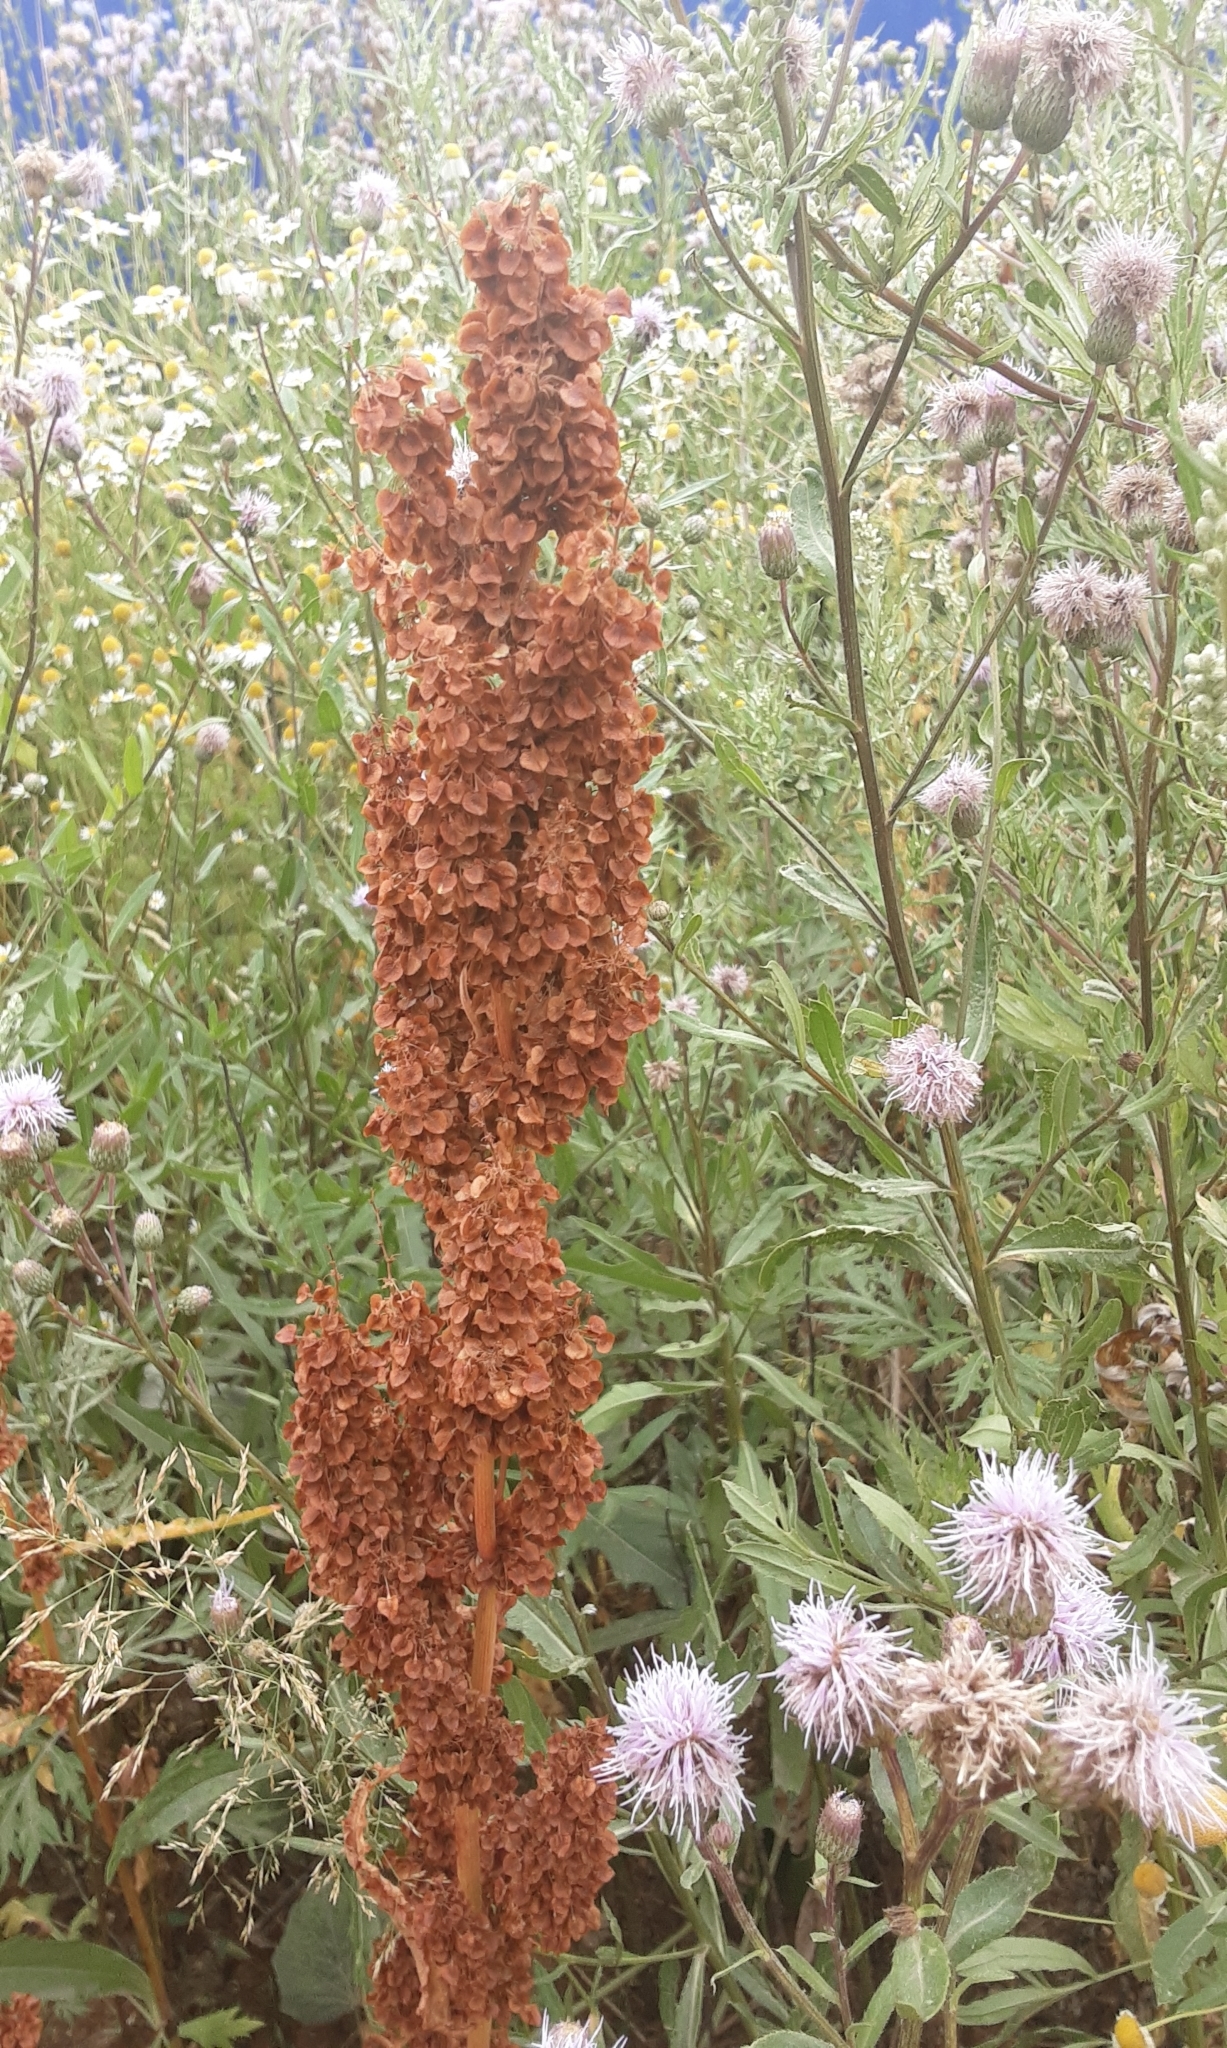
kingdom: Plantae
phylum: Tracheophyta
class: Magnoliopsida
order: Caryophyllales
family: Polygonaceae
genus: Rumex
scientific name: Rumex crispus
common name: Curled dock
